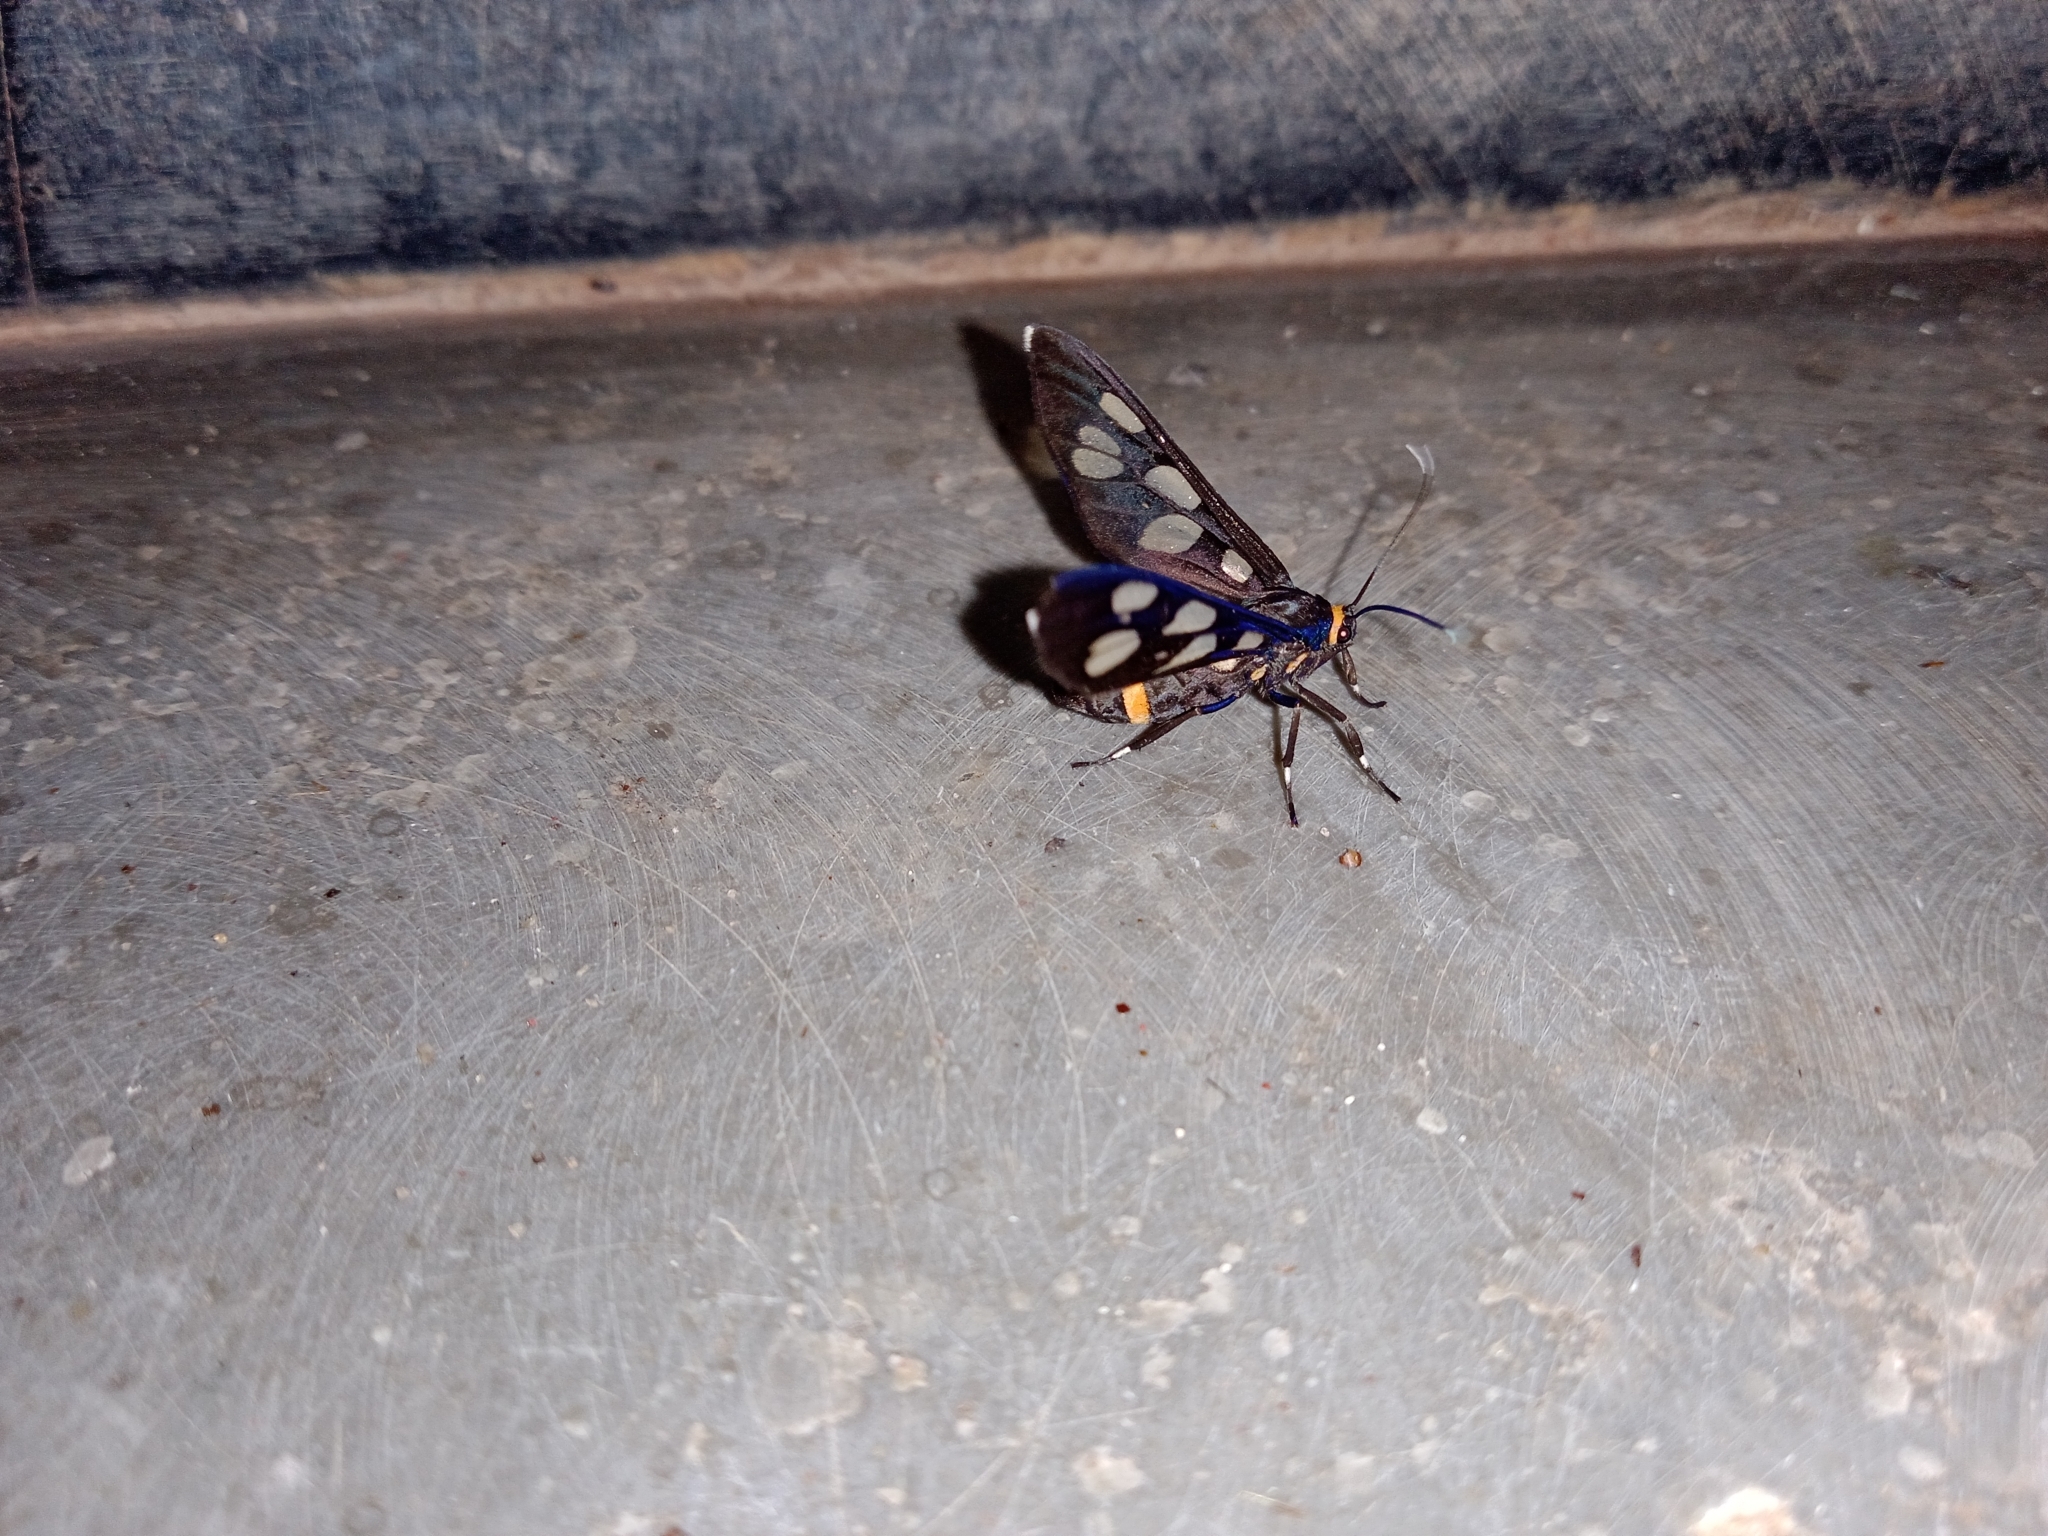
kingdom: Animalia
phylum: Arthropoda
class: Insecta
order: Lepidoptera
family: Erebidae
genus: Syntomoides
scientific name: Syntomoides imaon
